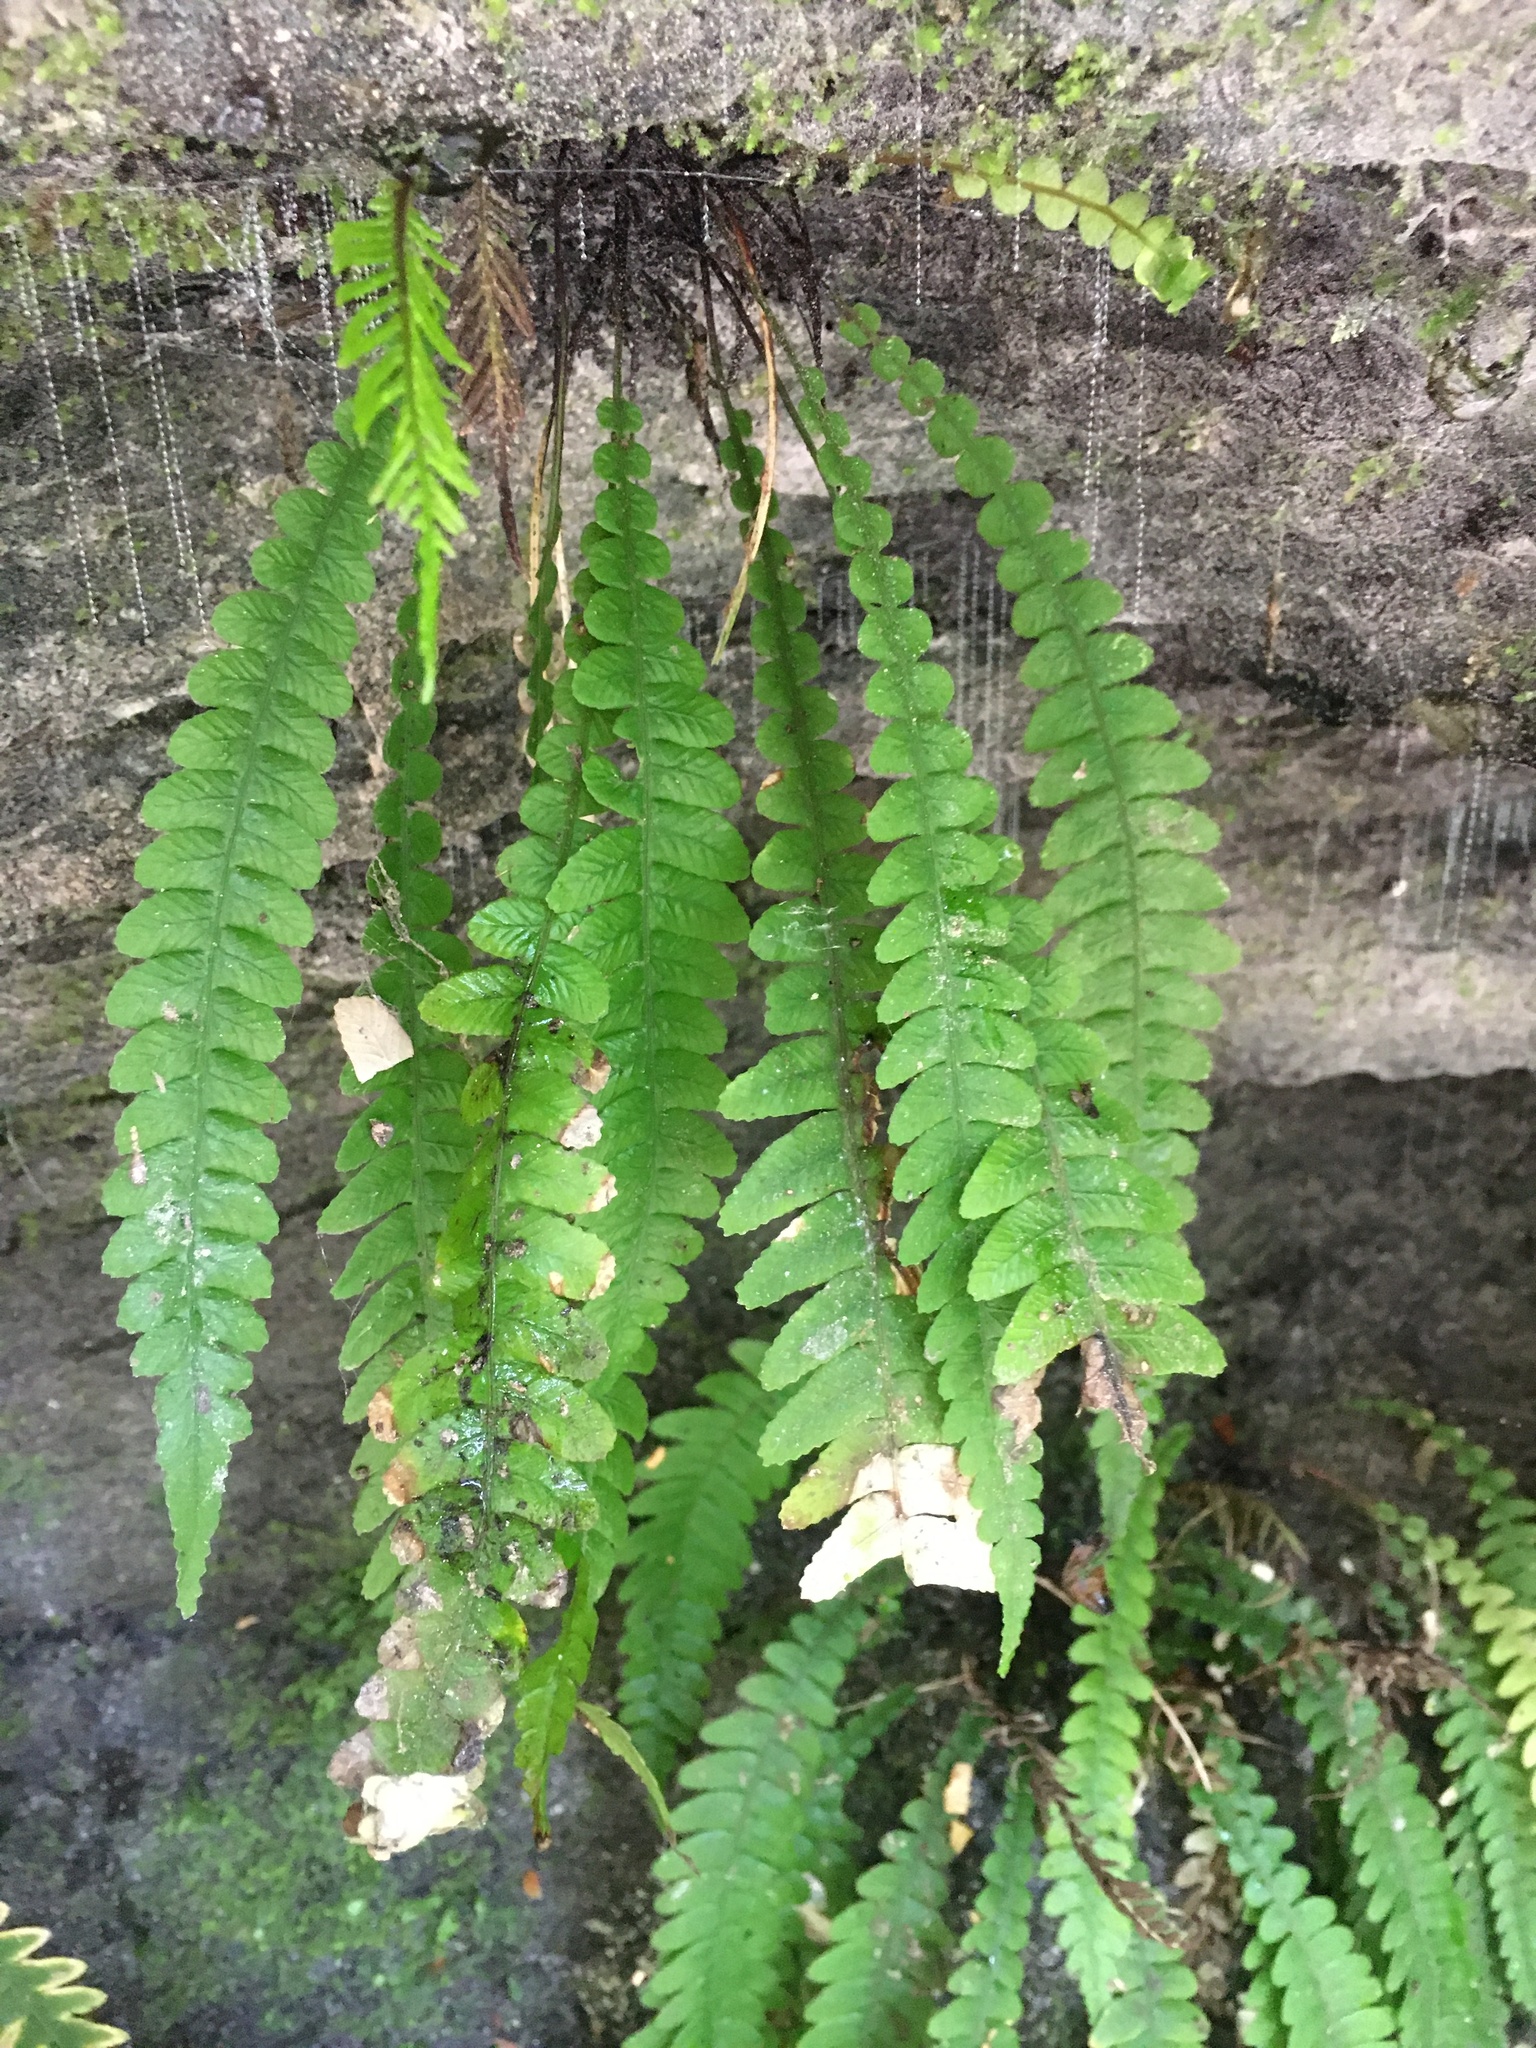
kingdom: Plantae
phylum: Tracheophyta
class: Polypodiopsida
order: Polypodiales
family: Blechnaceae
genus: Austroblechnum
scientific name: Austroblechnum lanceolatum
